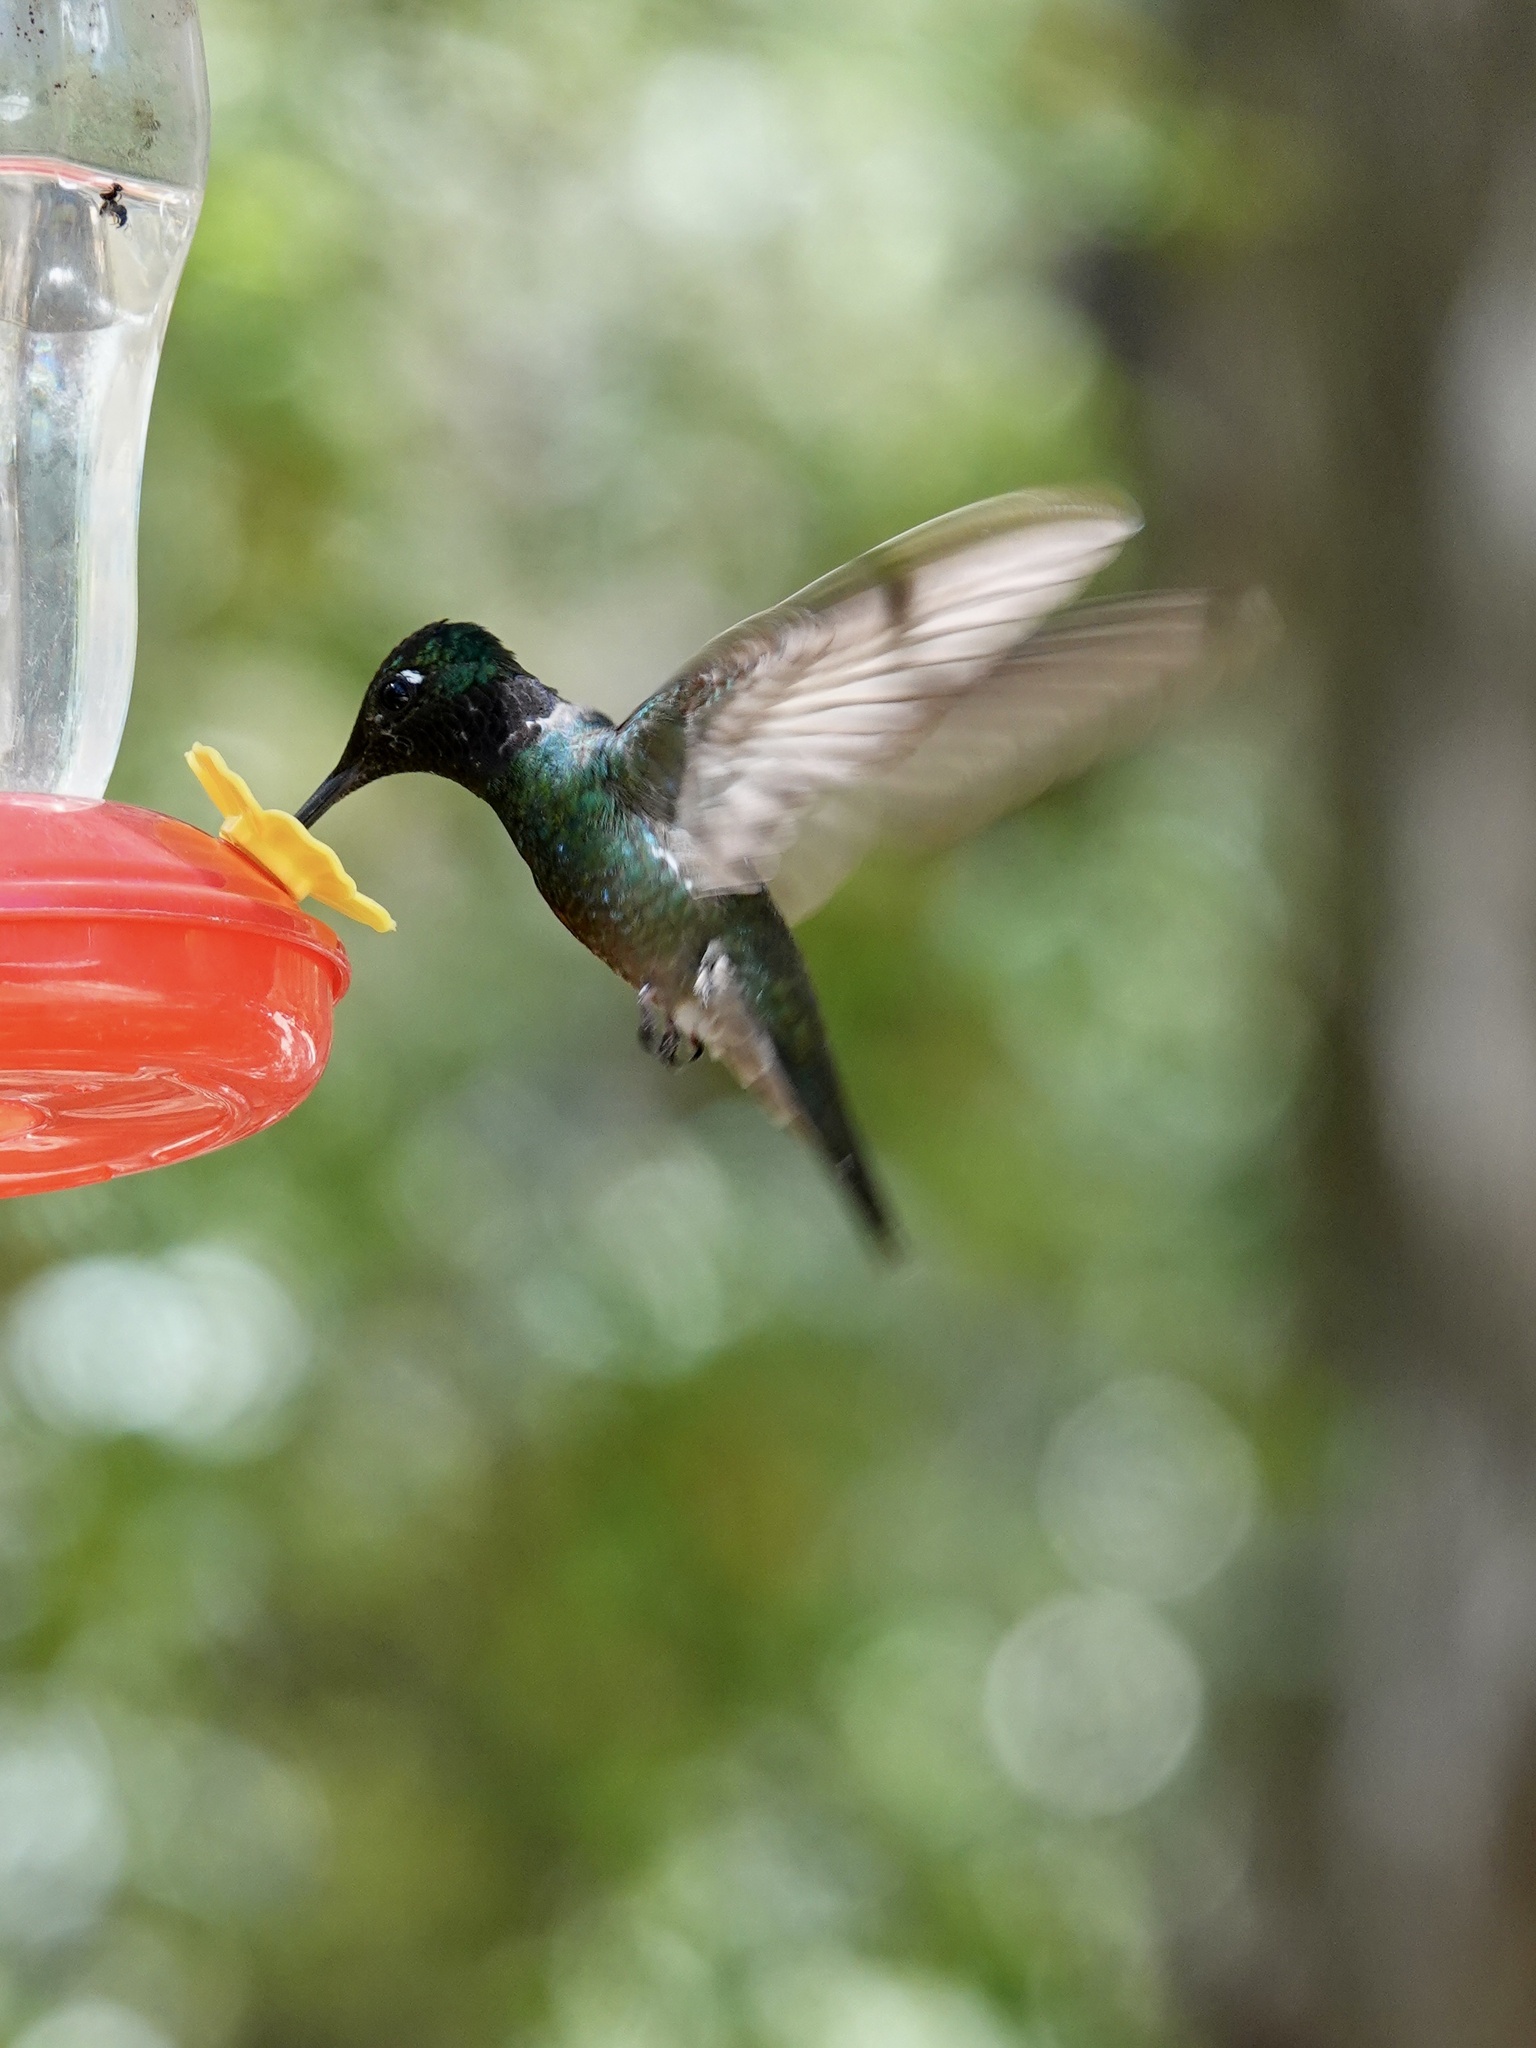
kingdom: Animalia
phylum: Chordata
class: Aves
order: Apodiformes
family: Trochilidae
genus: Eugenes
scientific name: Eugenes fulgens
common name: Magnificent hummingbird
